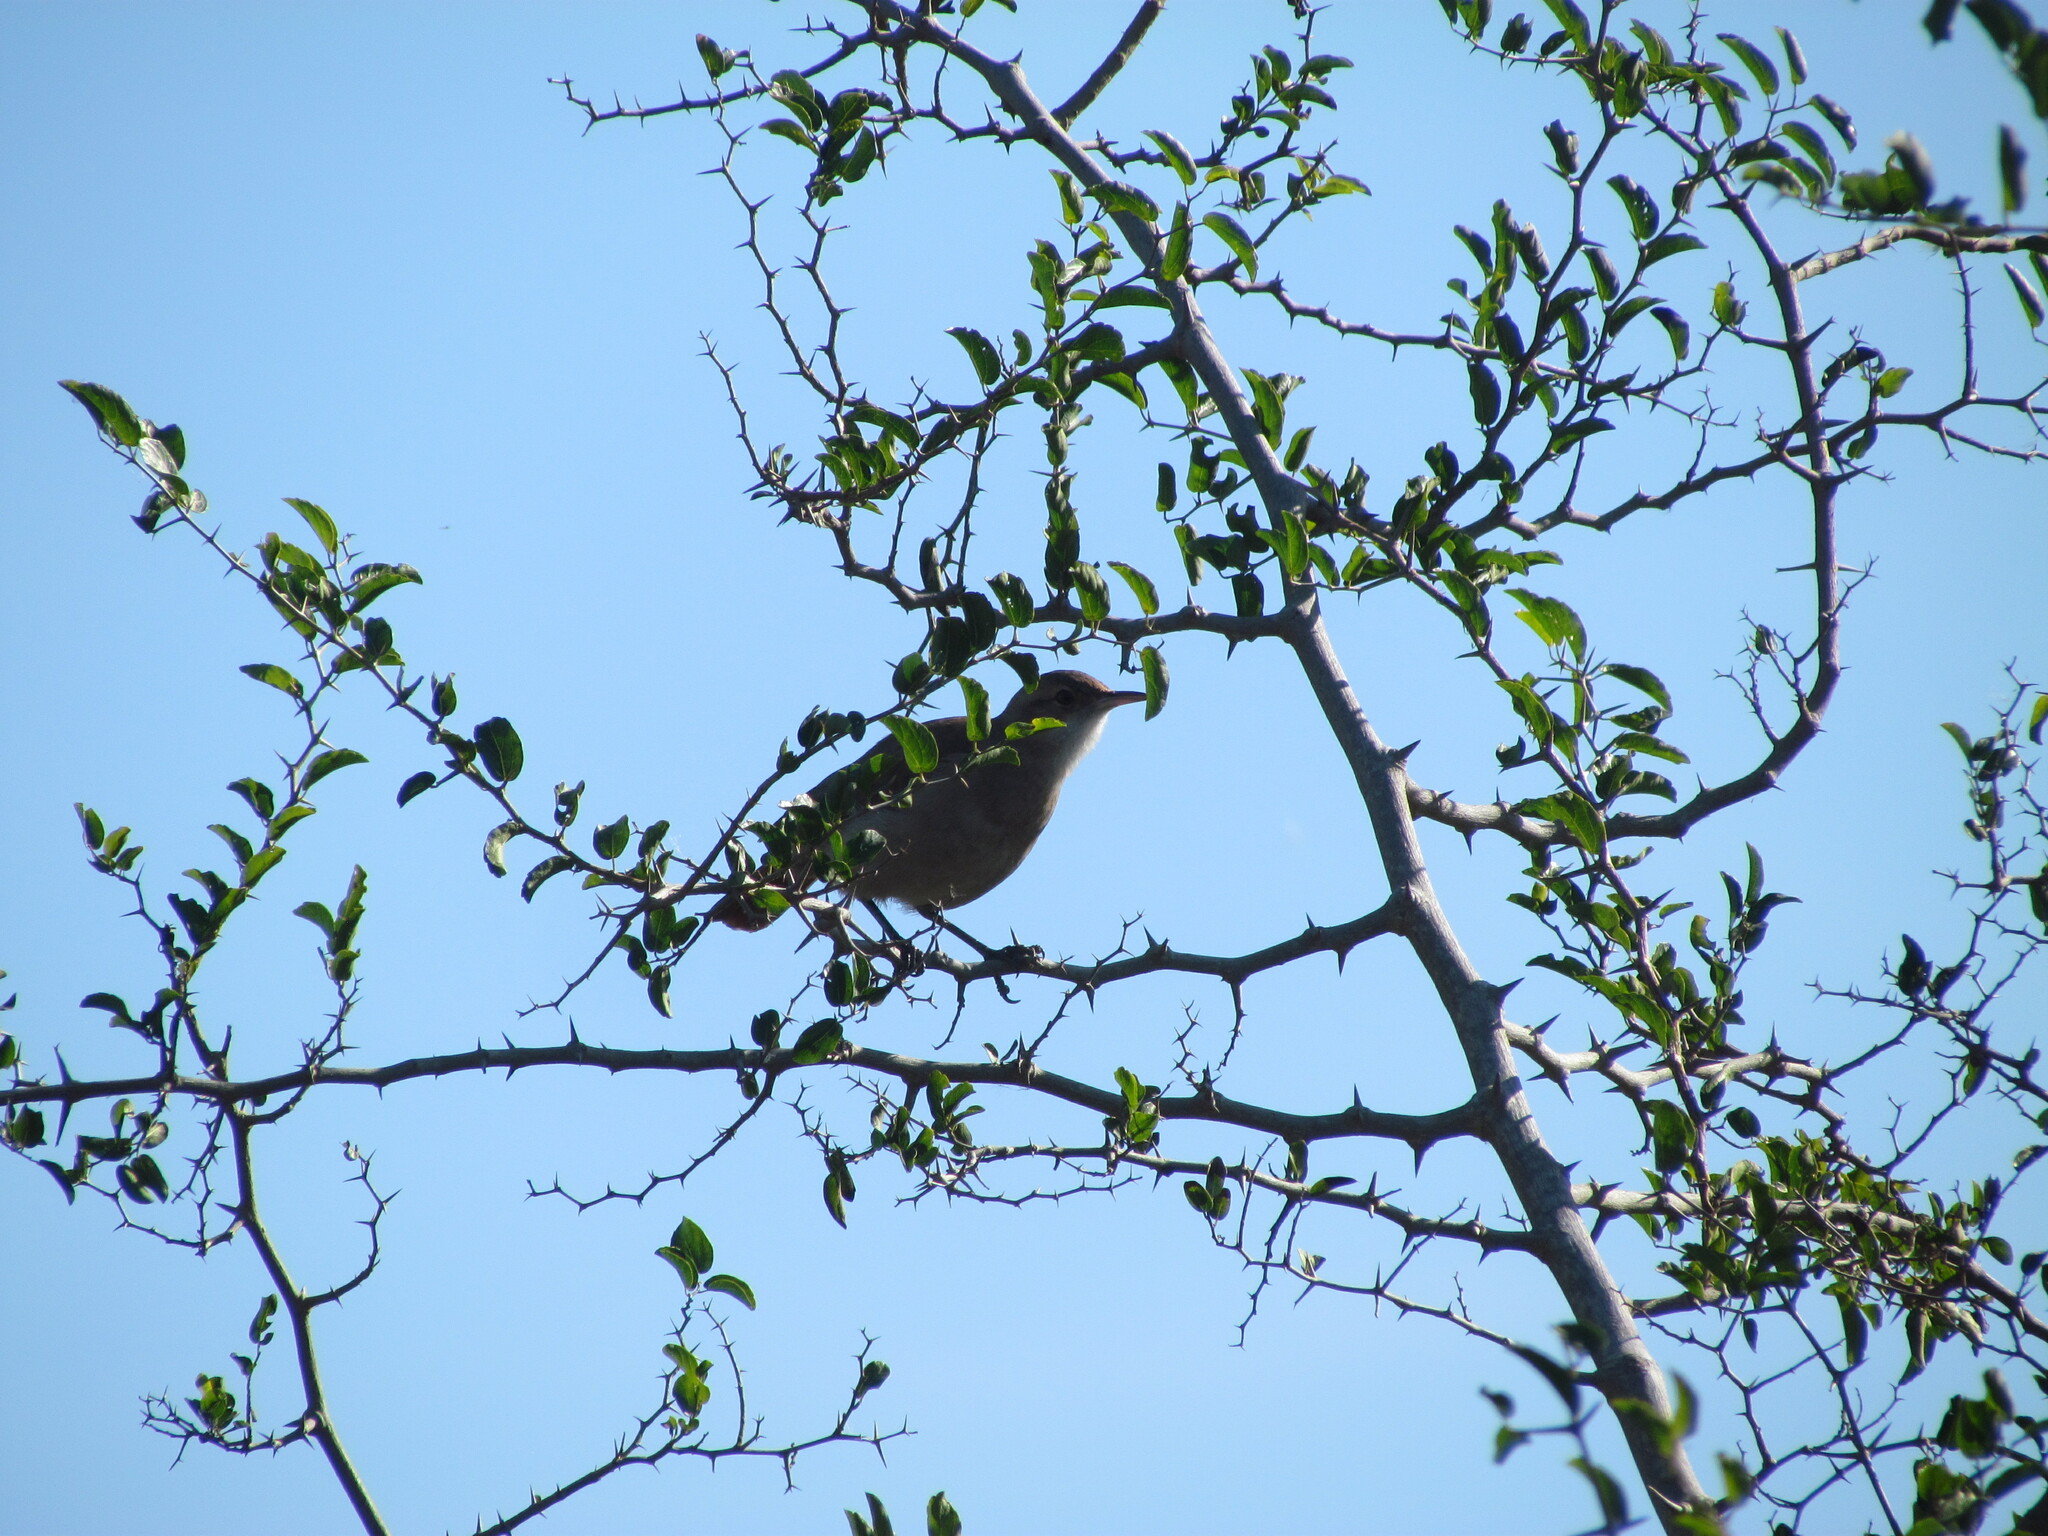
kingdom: Animalia
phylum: Chordata
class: Aves
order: Passeriformes
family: Furnariidae
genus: Furnarius
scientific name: Furnarius rufus
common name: Rufous hornero
